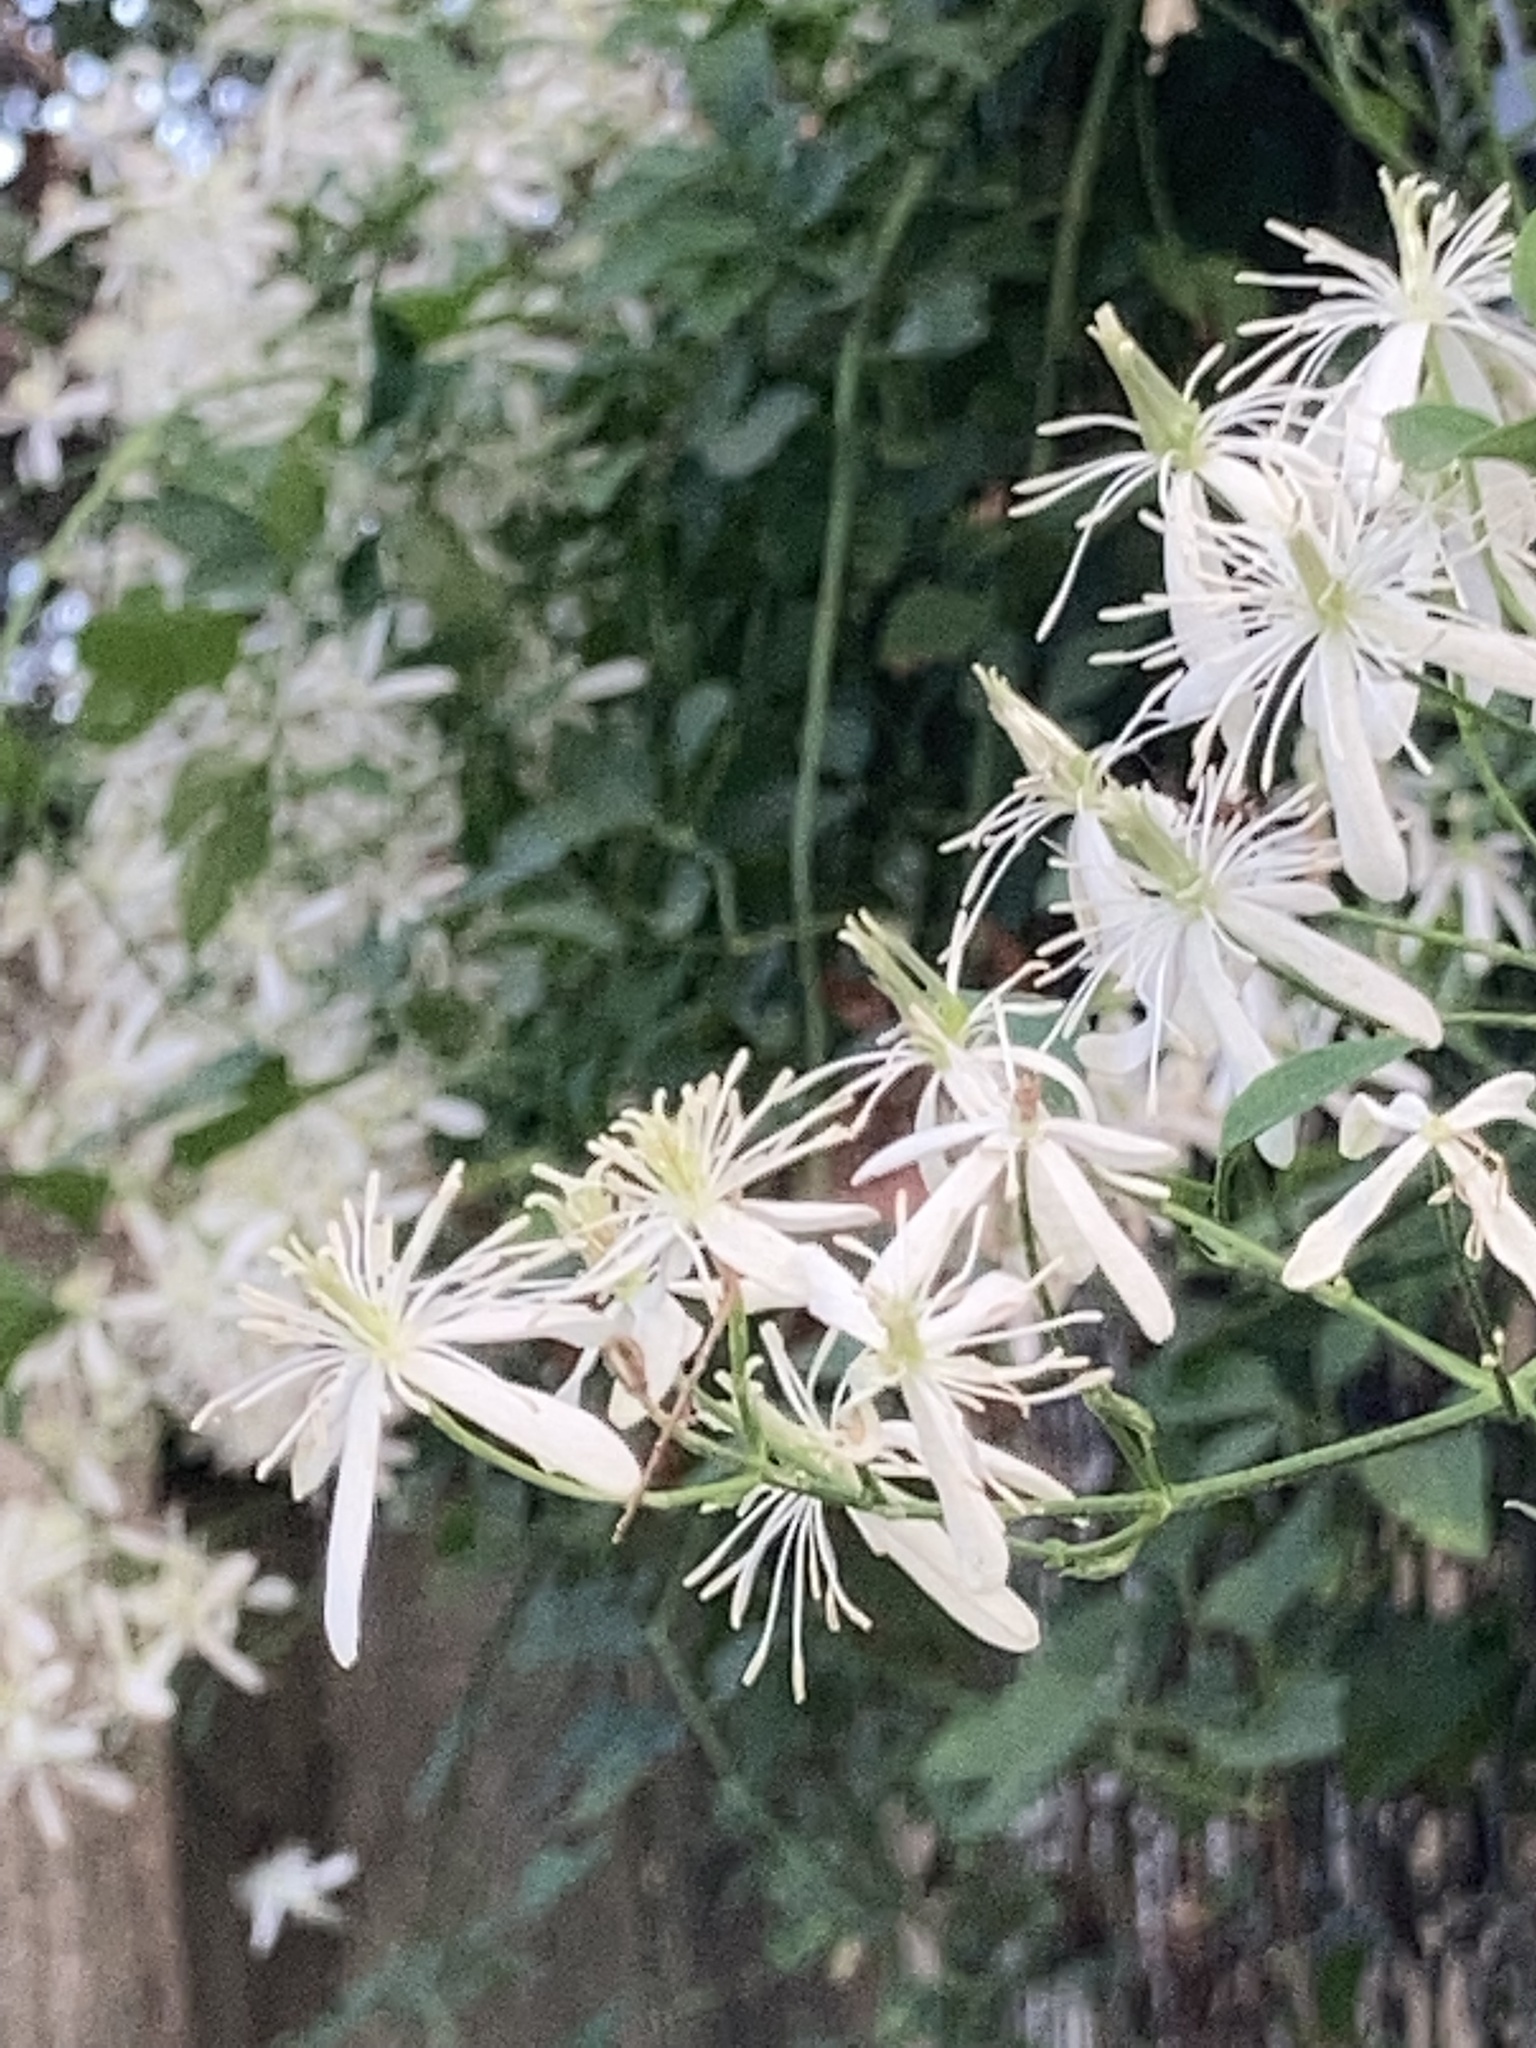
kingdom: Plantae
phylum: Tracheophyta
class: Magnoliopsida
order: Ranunculales
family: Ranunculaceae
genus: Clematis
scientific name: Clematis terniflora
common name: Sweet autumn clematis
